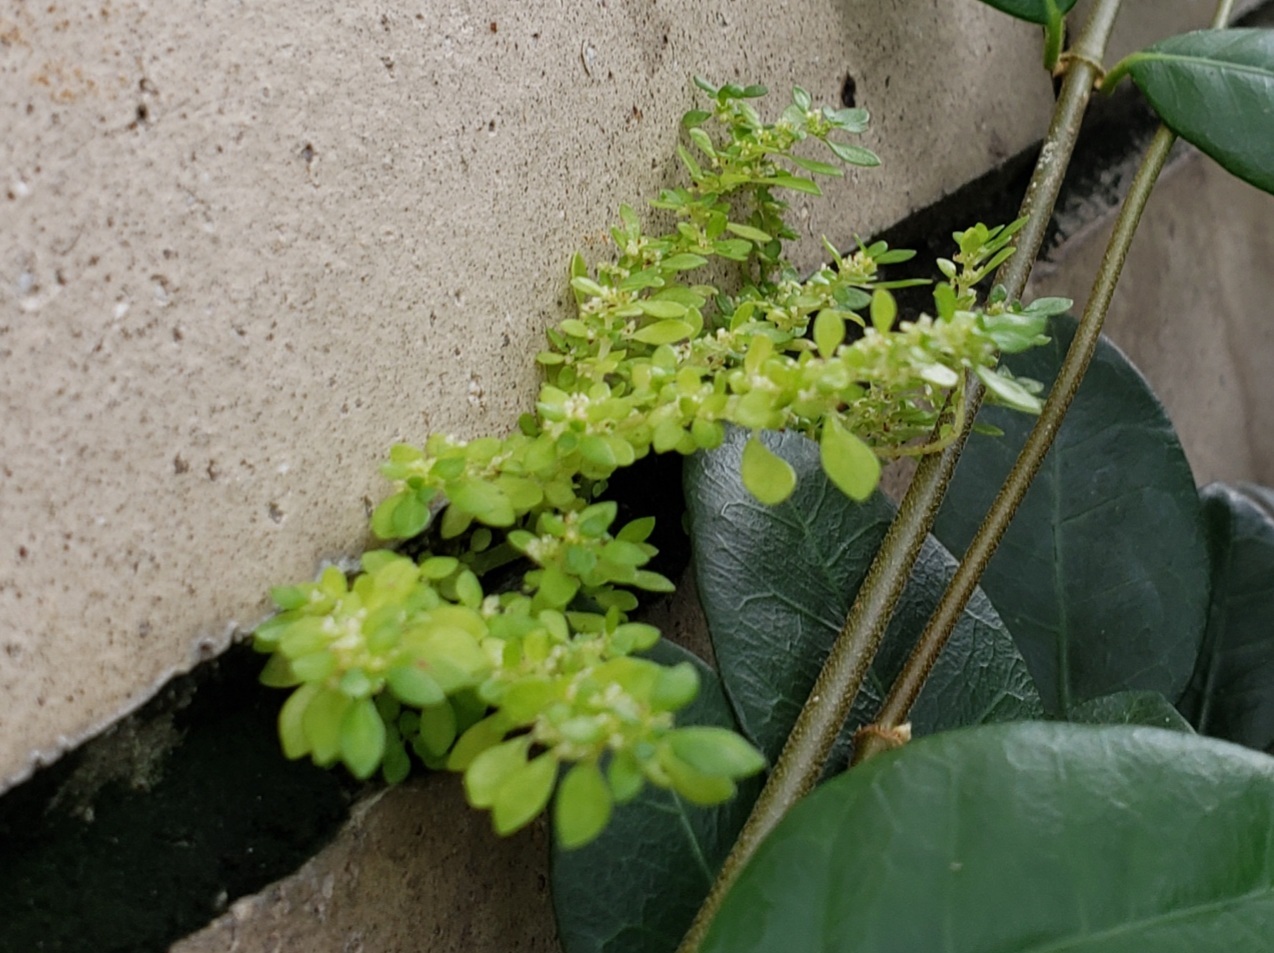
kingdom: Plantae
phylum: Tracheophyta
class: Magnoliopsida
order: Rosales
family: Urticaceae
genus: Pilea
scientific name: Pilea microphylla
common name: Artillery-plant
